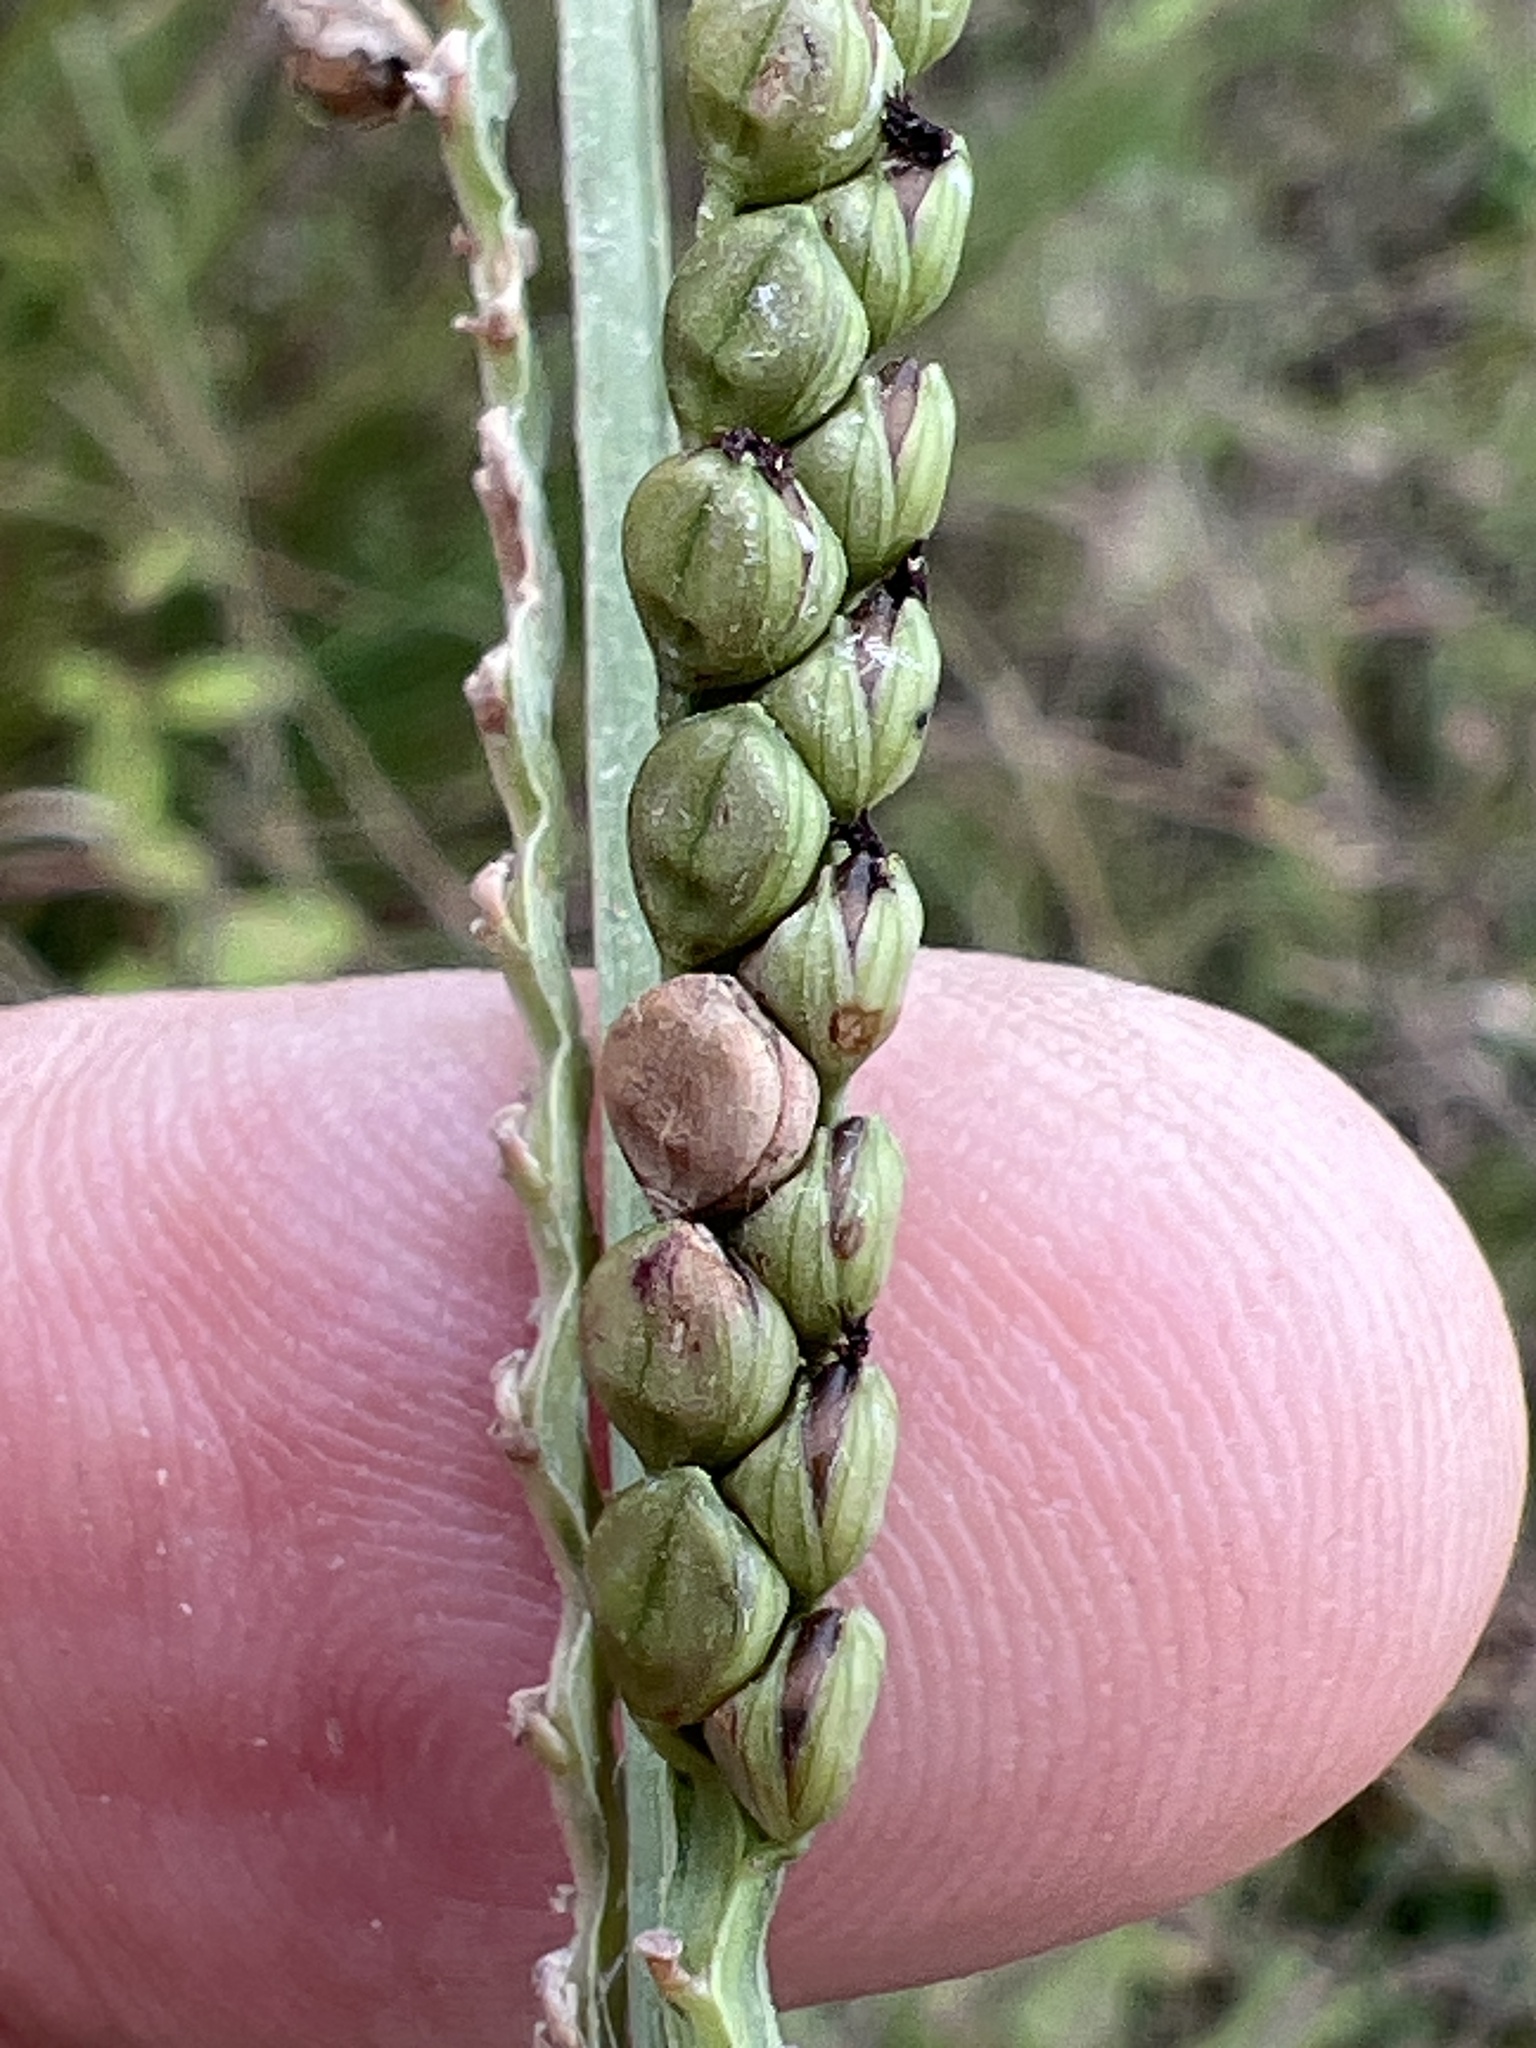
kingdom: Plantae
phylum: Tracheophyta
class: Liliopsida
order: Poales
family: Poaceae
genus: Paspalum
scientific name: Paspalum floridanum
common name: Florida paspalum
